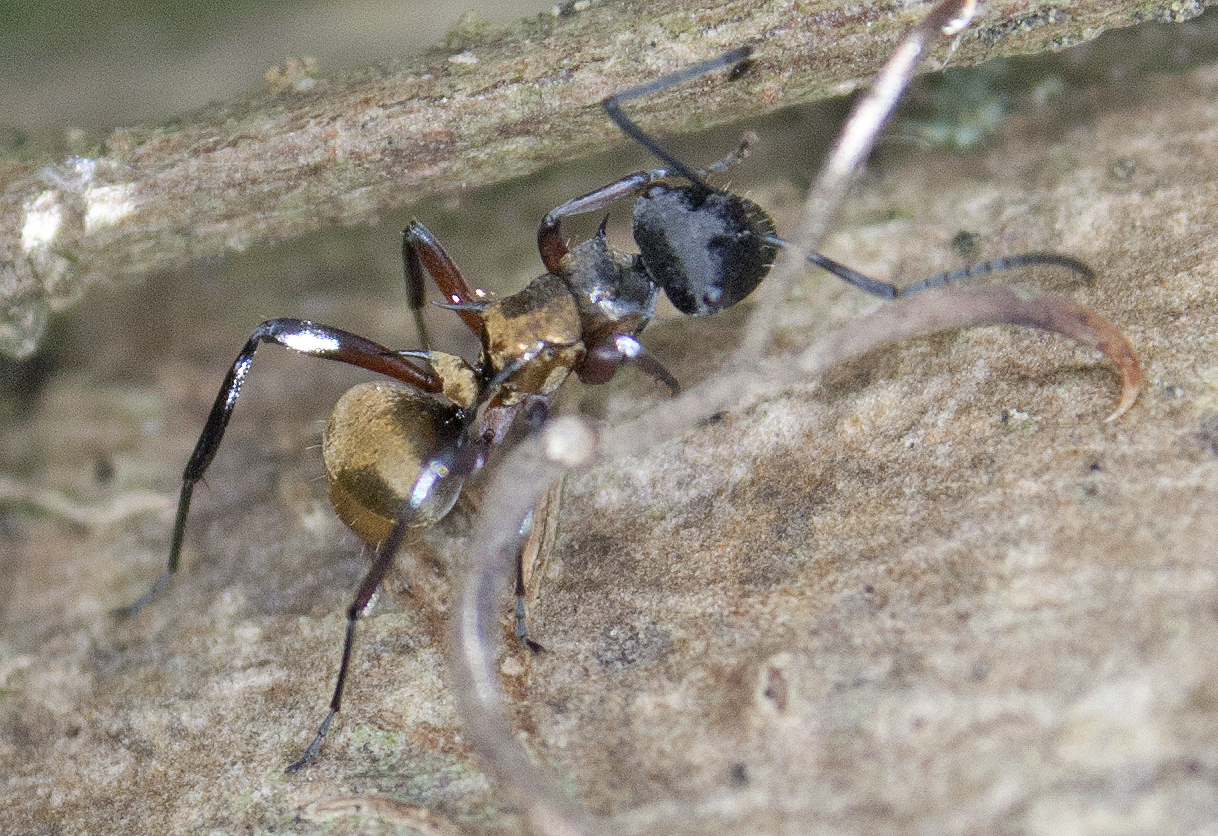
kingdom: Animalia
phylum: Arthropoda
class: Insecta
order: Hymenoptera
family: Formicidae
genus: Polyrhachis
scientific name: Polyrhachis rufifemur
